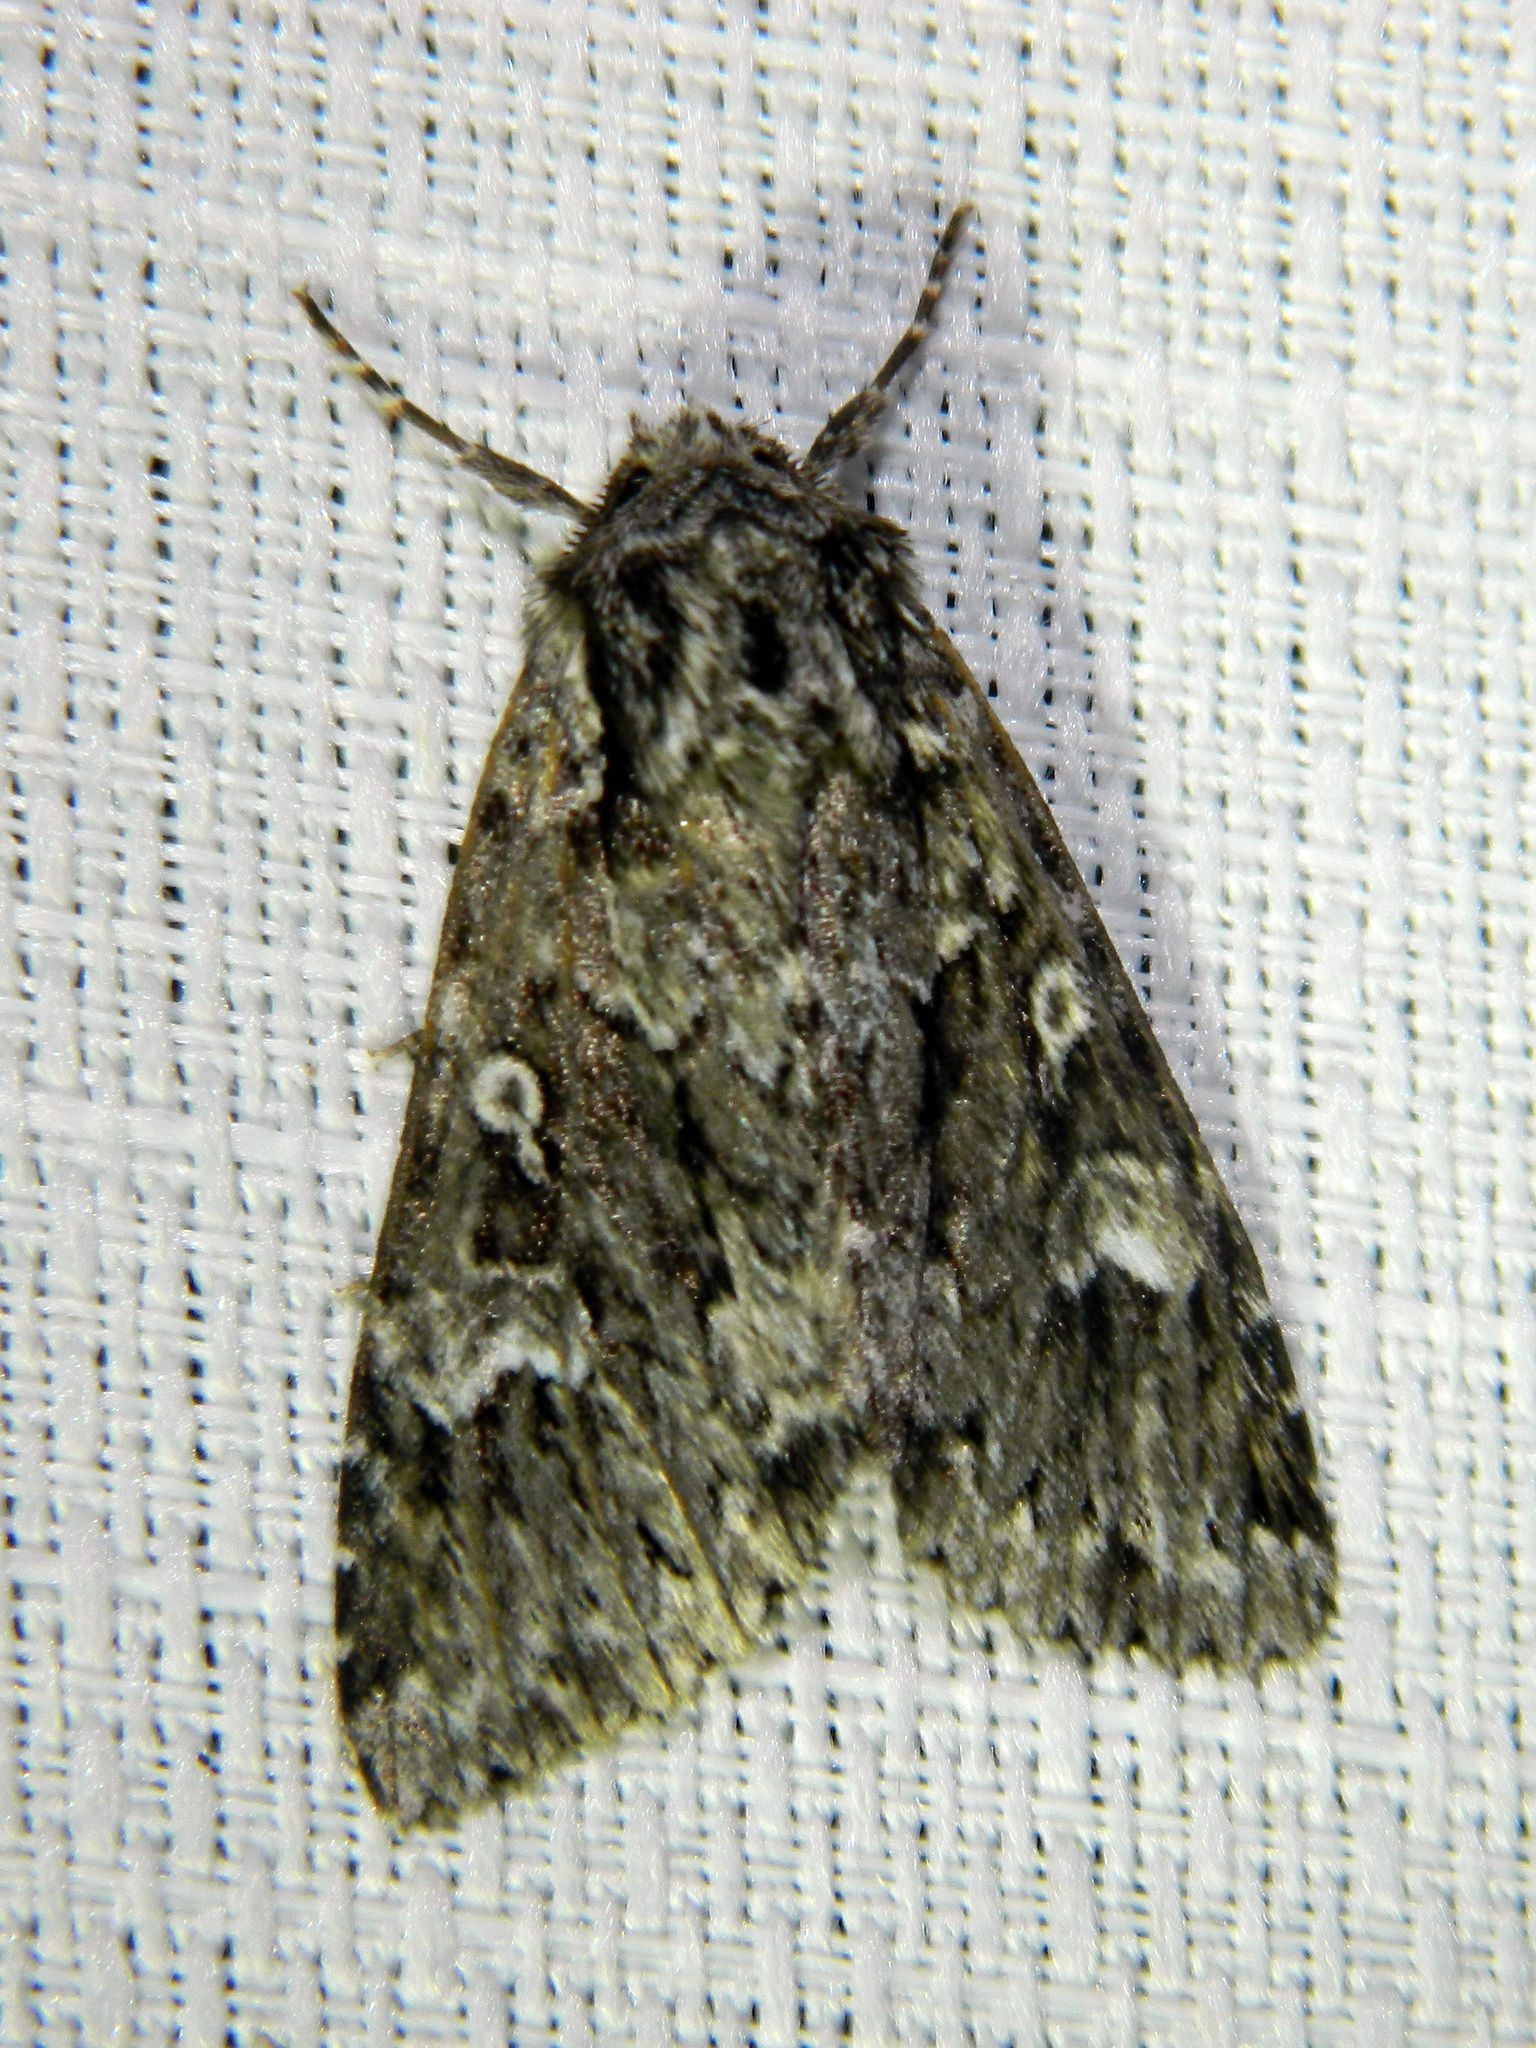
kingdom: Animalia
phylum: Arthropoda
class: Insecta
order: Lepidoptera
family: Noctuidae
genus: Platypolia
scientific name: Platypolia anceps
